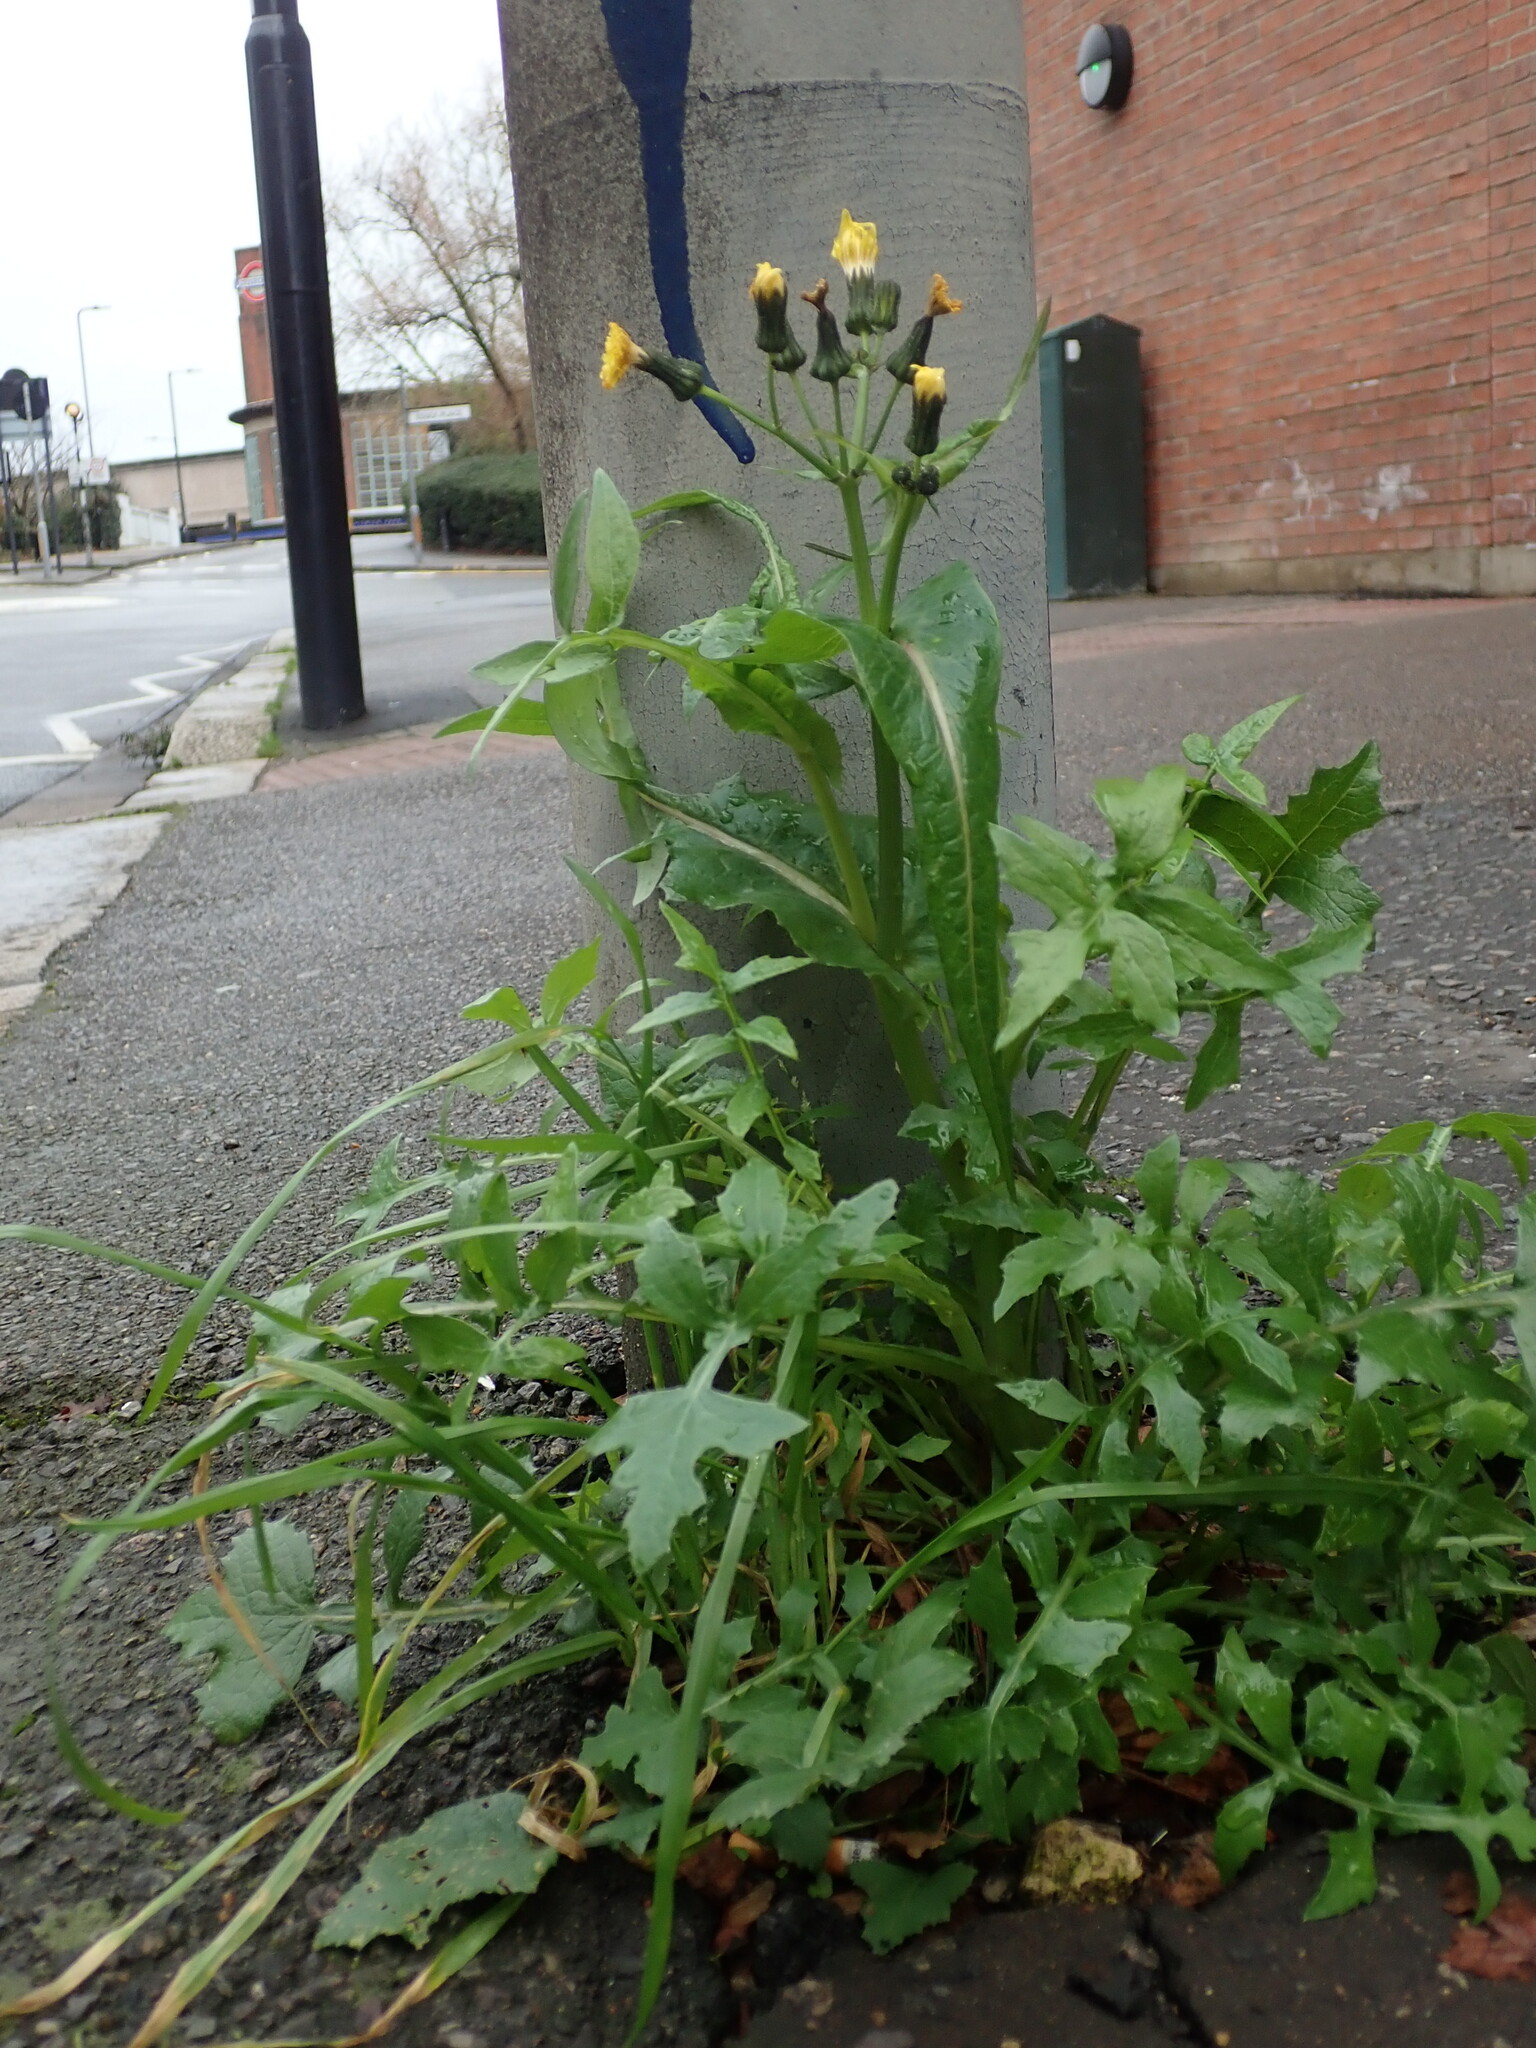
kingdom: Plantae
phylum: Tracheophyta
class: Magnoliopsida
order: Asterales
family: Asteraceae
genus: Sonchus
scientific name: Sonchus oleraceus
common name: Common sowthistle
